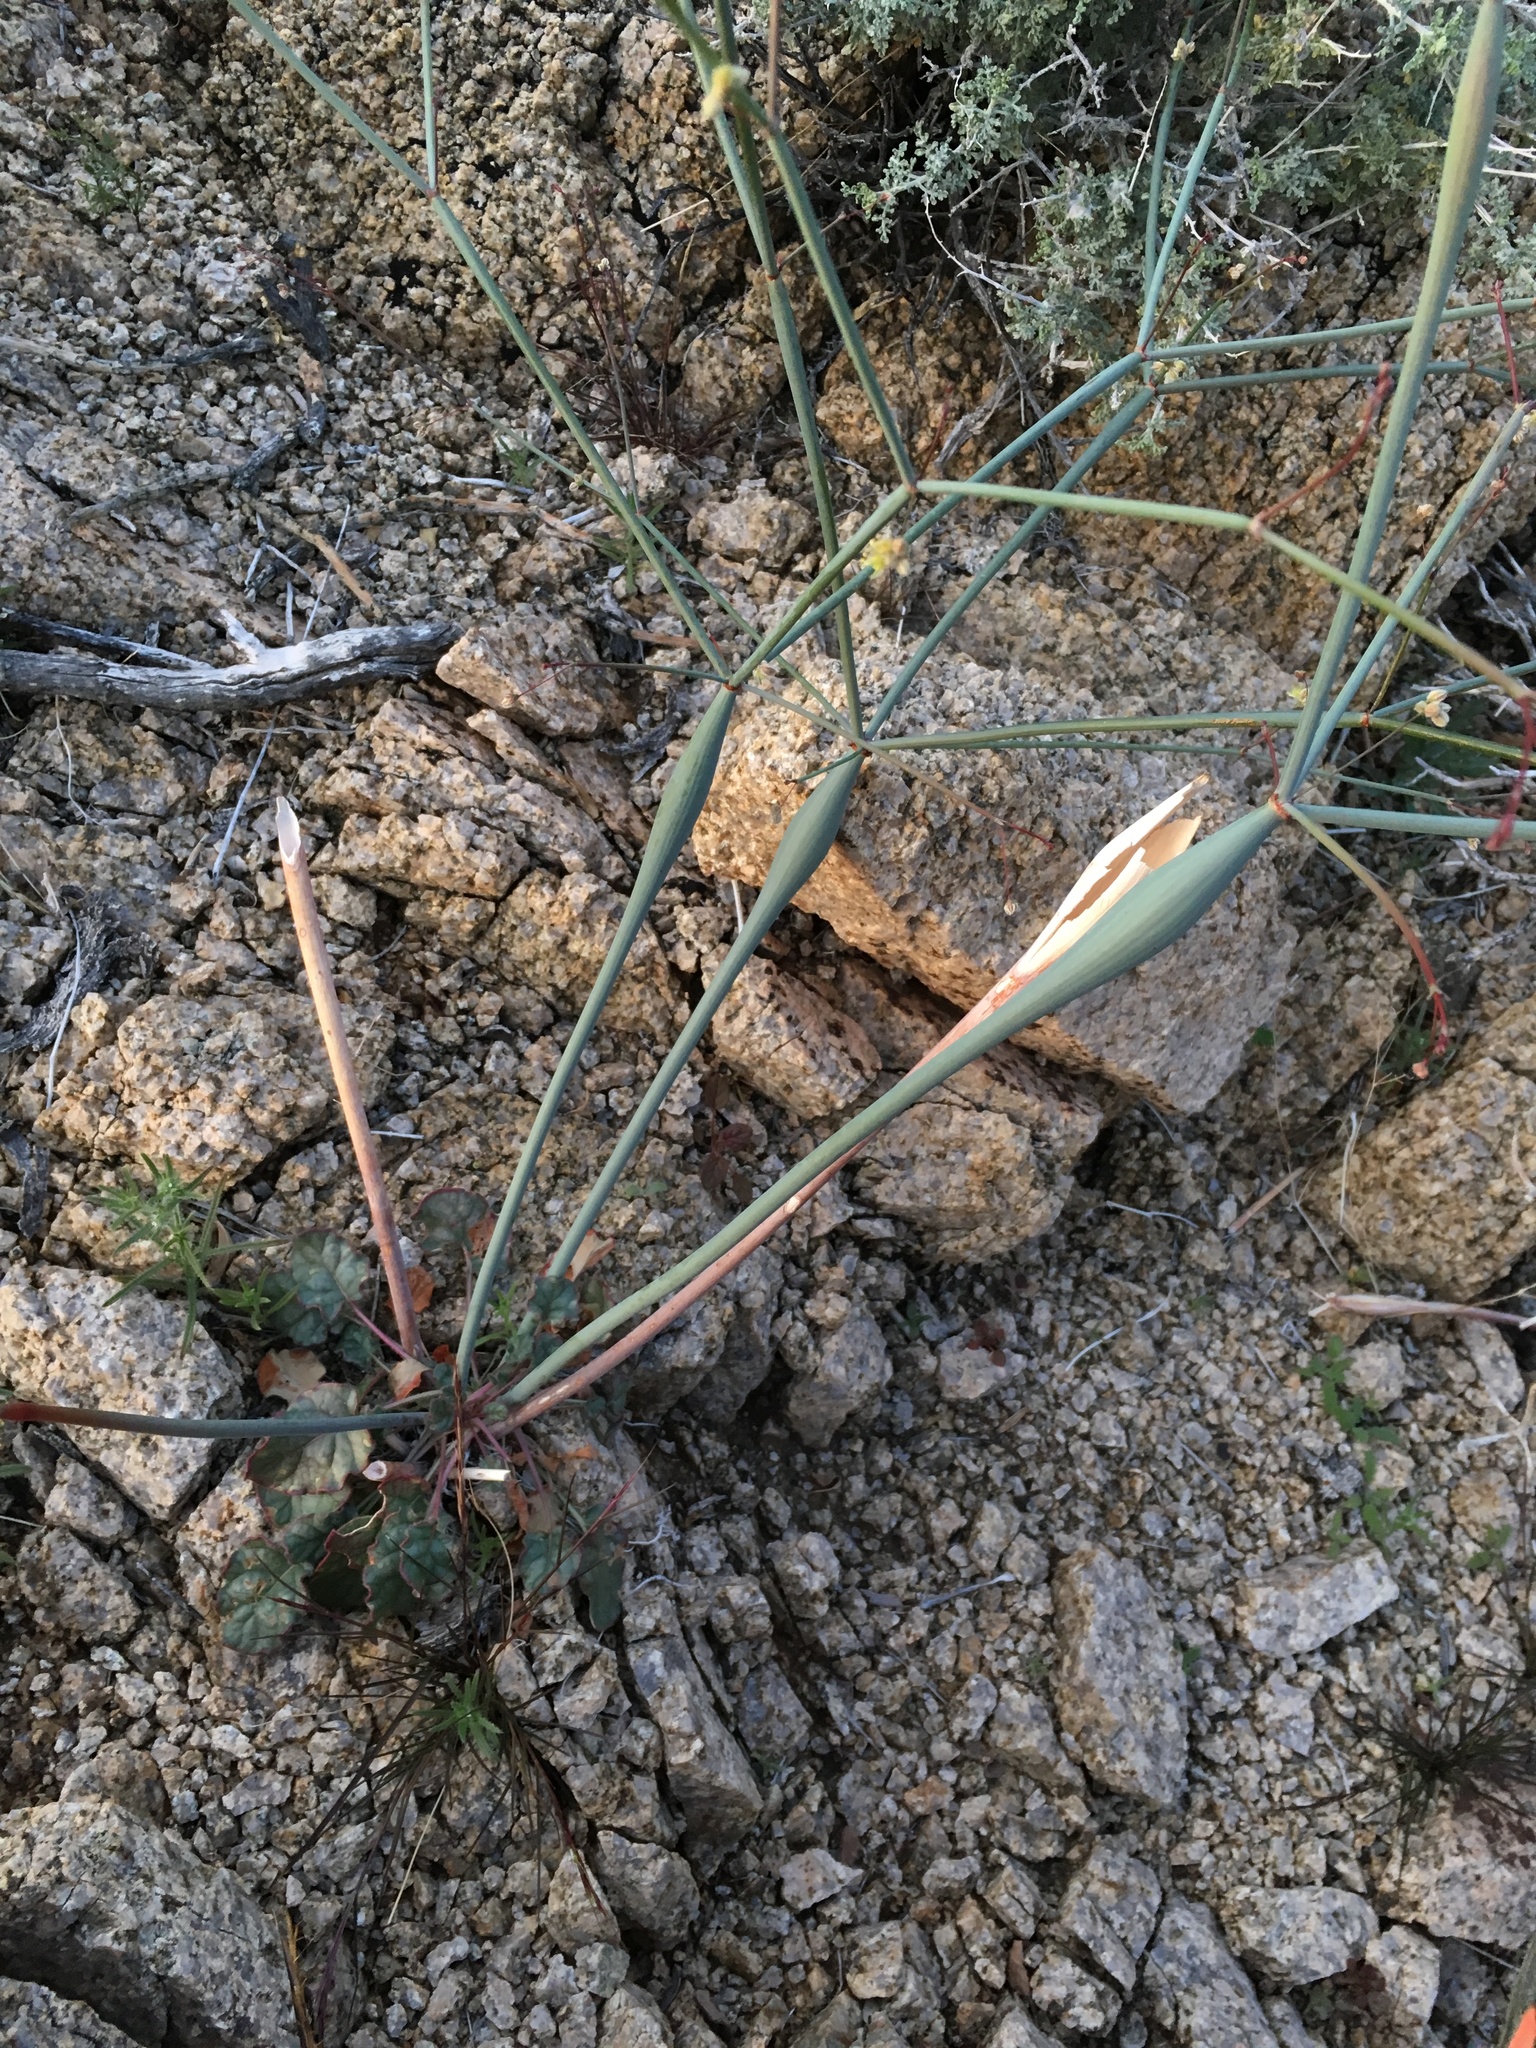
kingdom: Plantae
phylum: Tracheophyta
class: Magnoliopsida
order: Caryophyllales
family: Polygonaceae
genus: Eriogonum
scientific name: Eriogonum inflatum
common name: Desert trumpet
